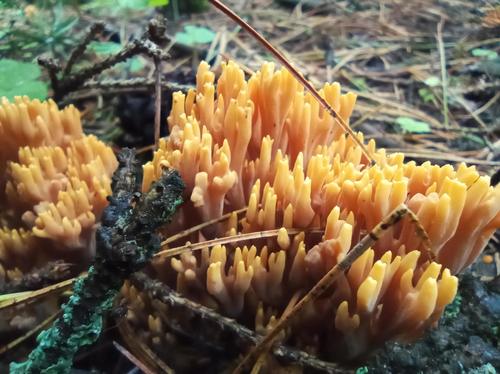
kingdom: Fungi
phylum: Basidiomycota
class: Agaricomycetes
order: Gomphales
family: Gomphaceae
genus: Ramaria
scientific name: Ramaria
